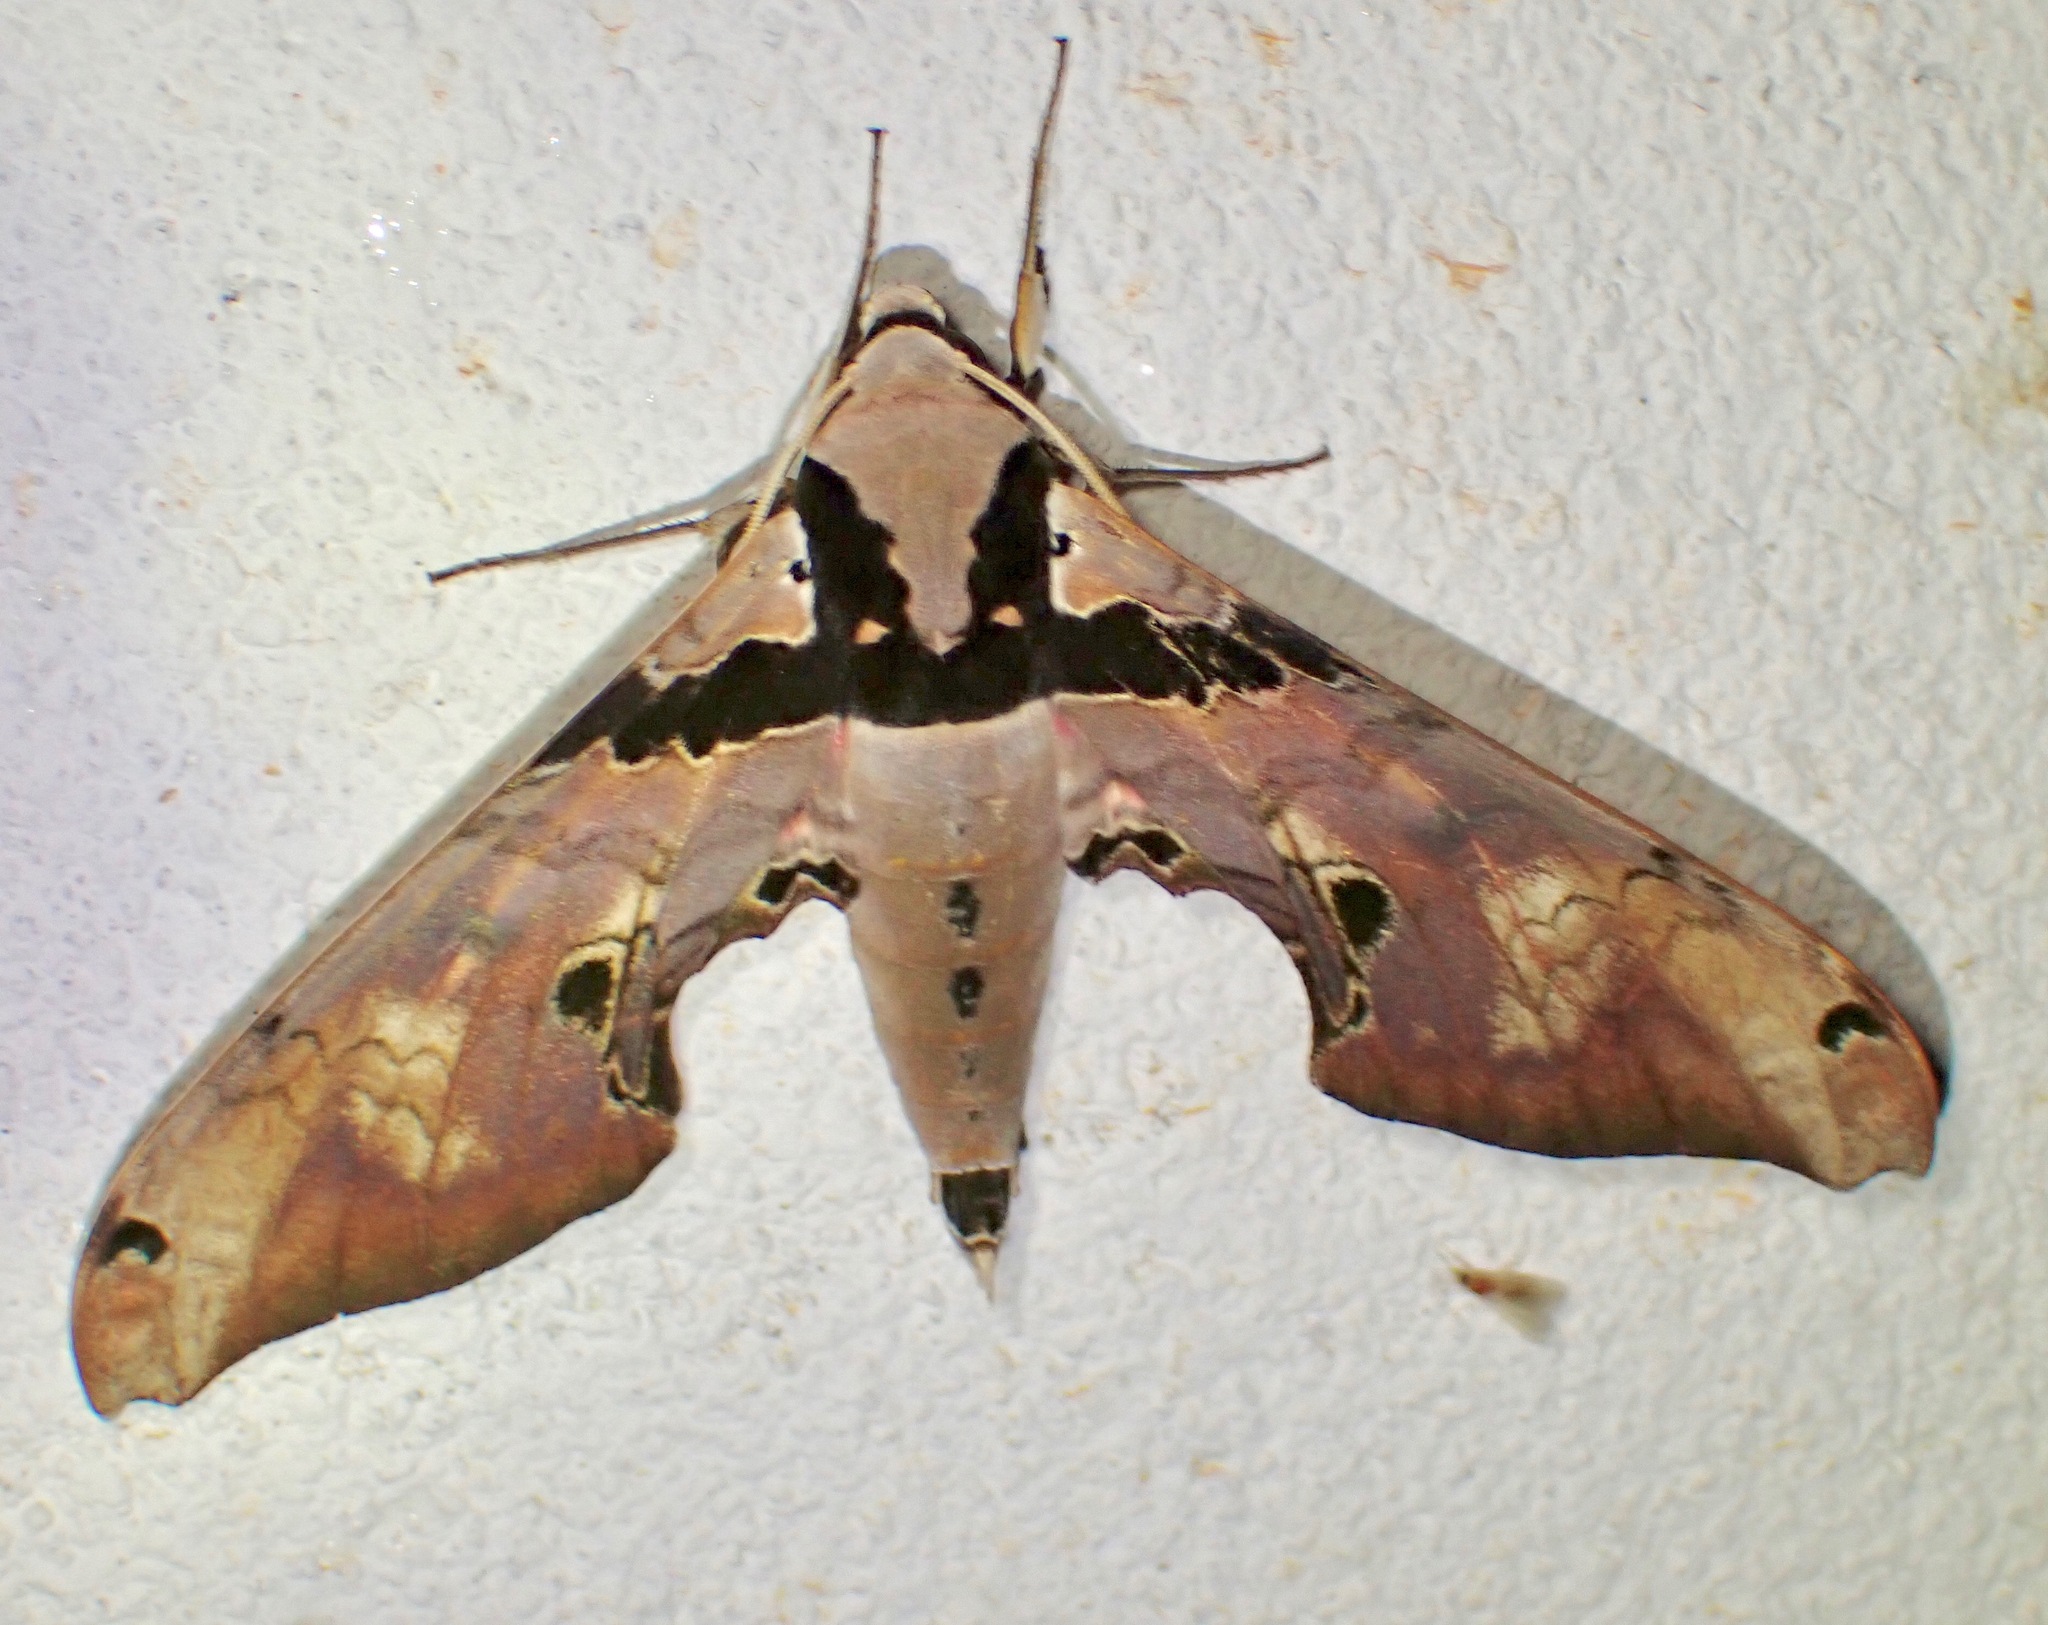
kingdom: Animalia
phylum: Arthropoda
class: Insecta
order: Lepidoptera
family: Sphingidae
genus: Adhemarius
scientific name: Adhemarius gannascus
